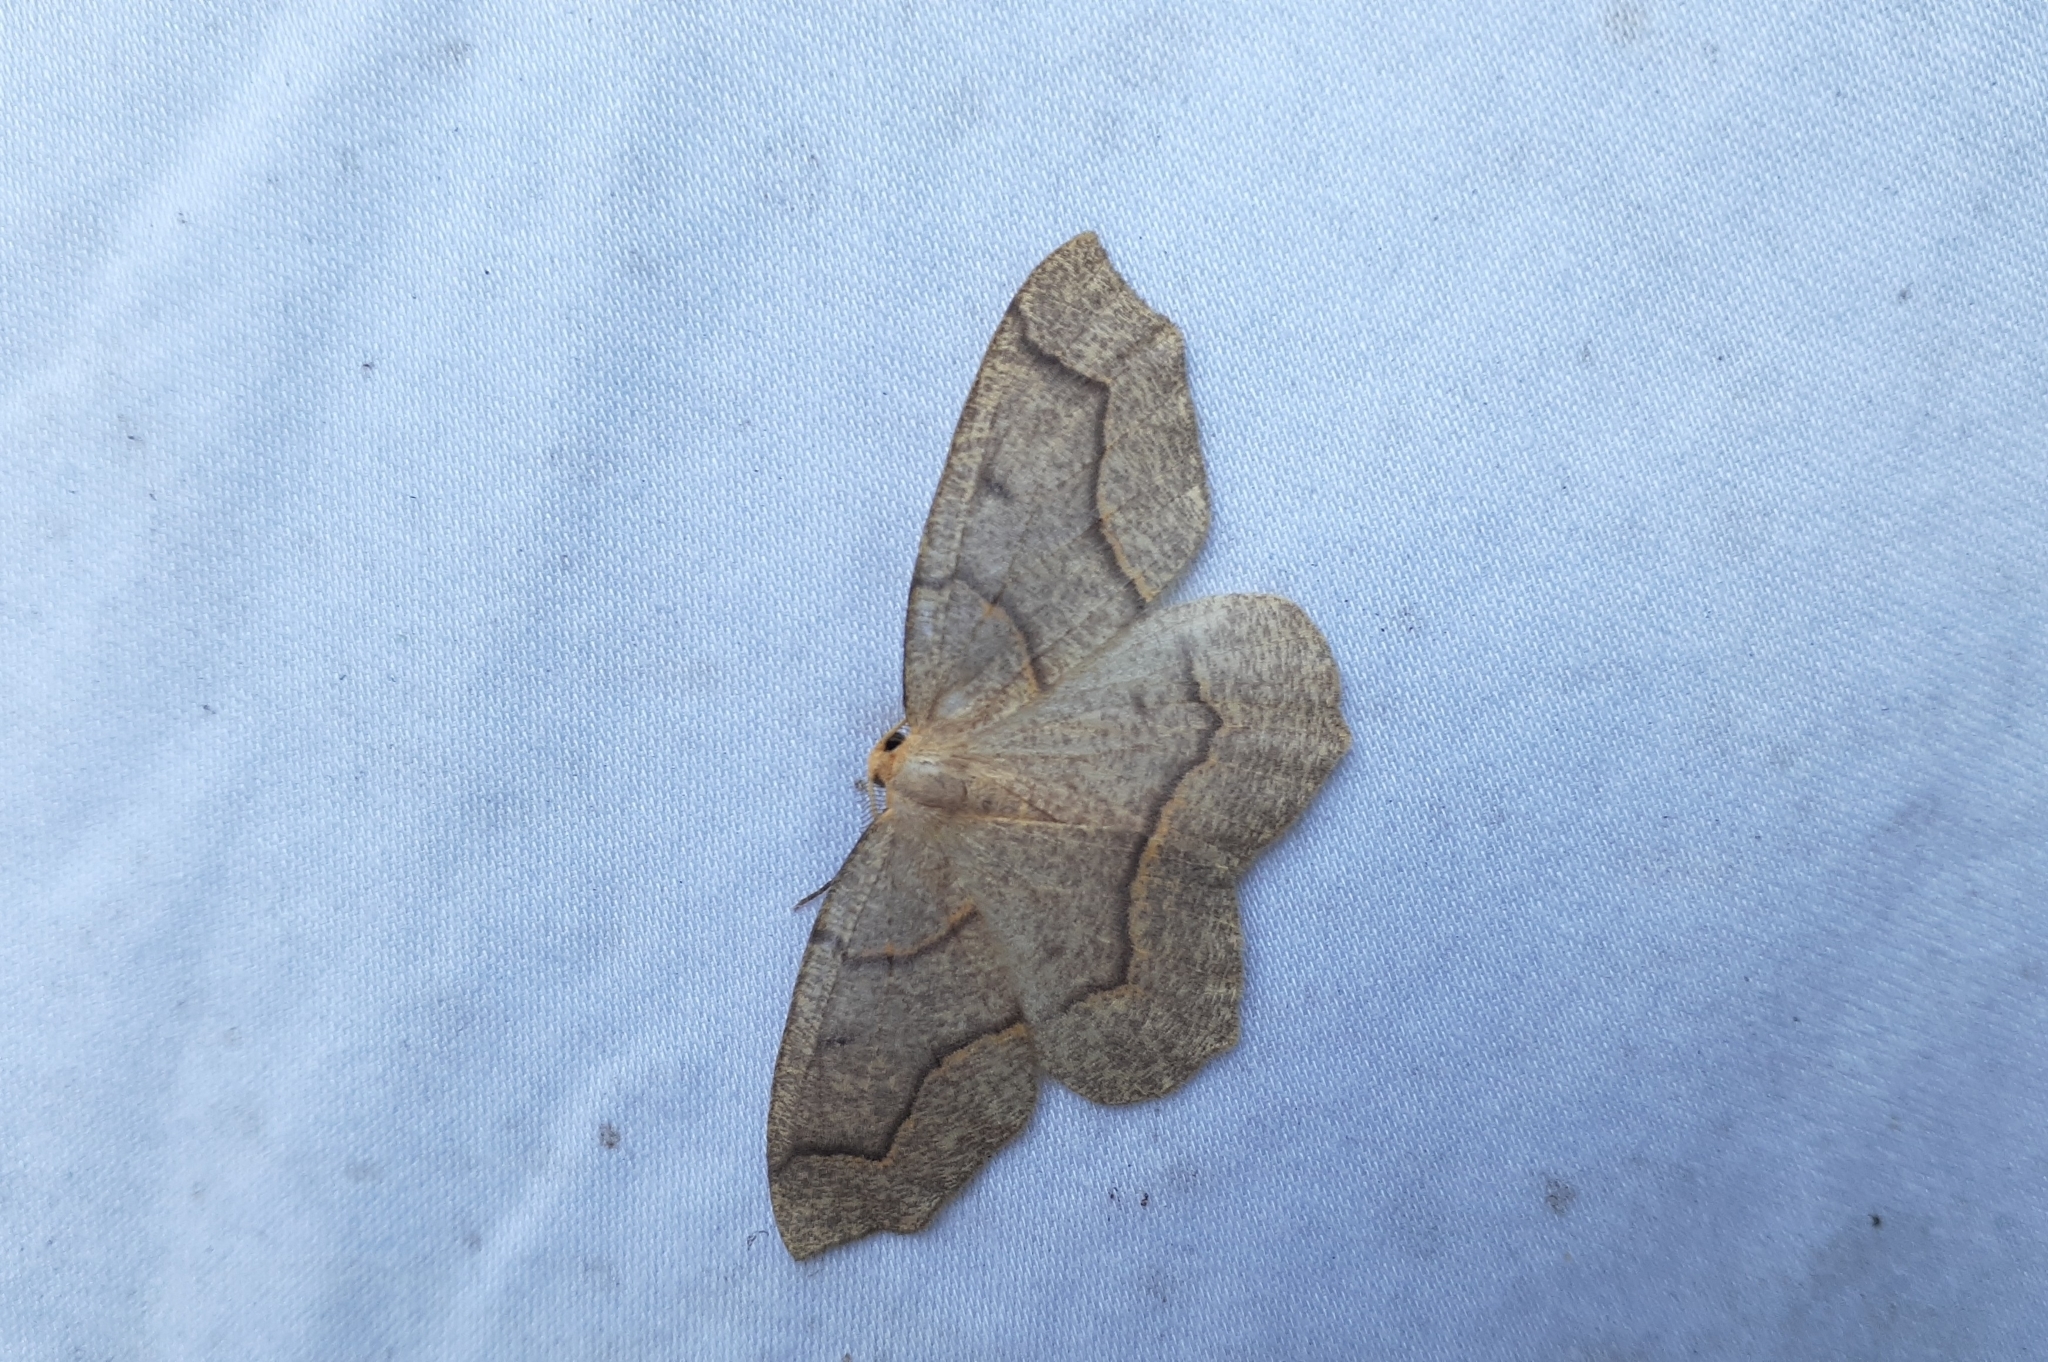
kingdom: Animalia
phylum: Arthropoda
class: Insecta
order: Lepidoptera
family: Geometridae
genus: Lambdina
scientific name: Lambdina fiscellaria
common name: Hemlock looper
